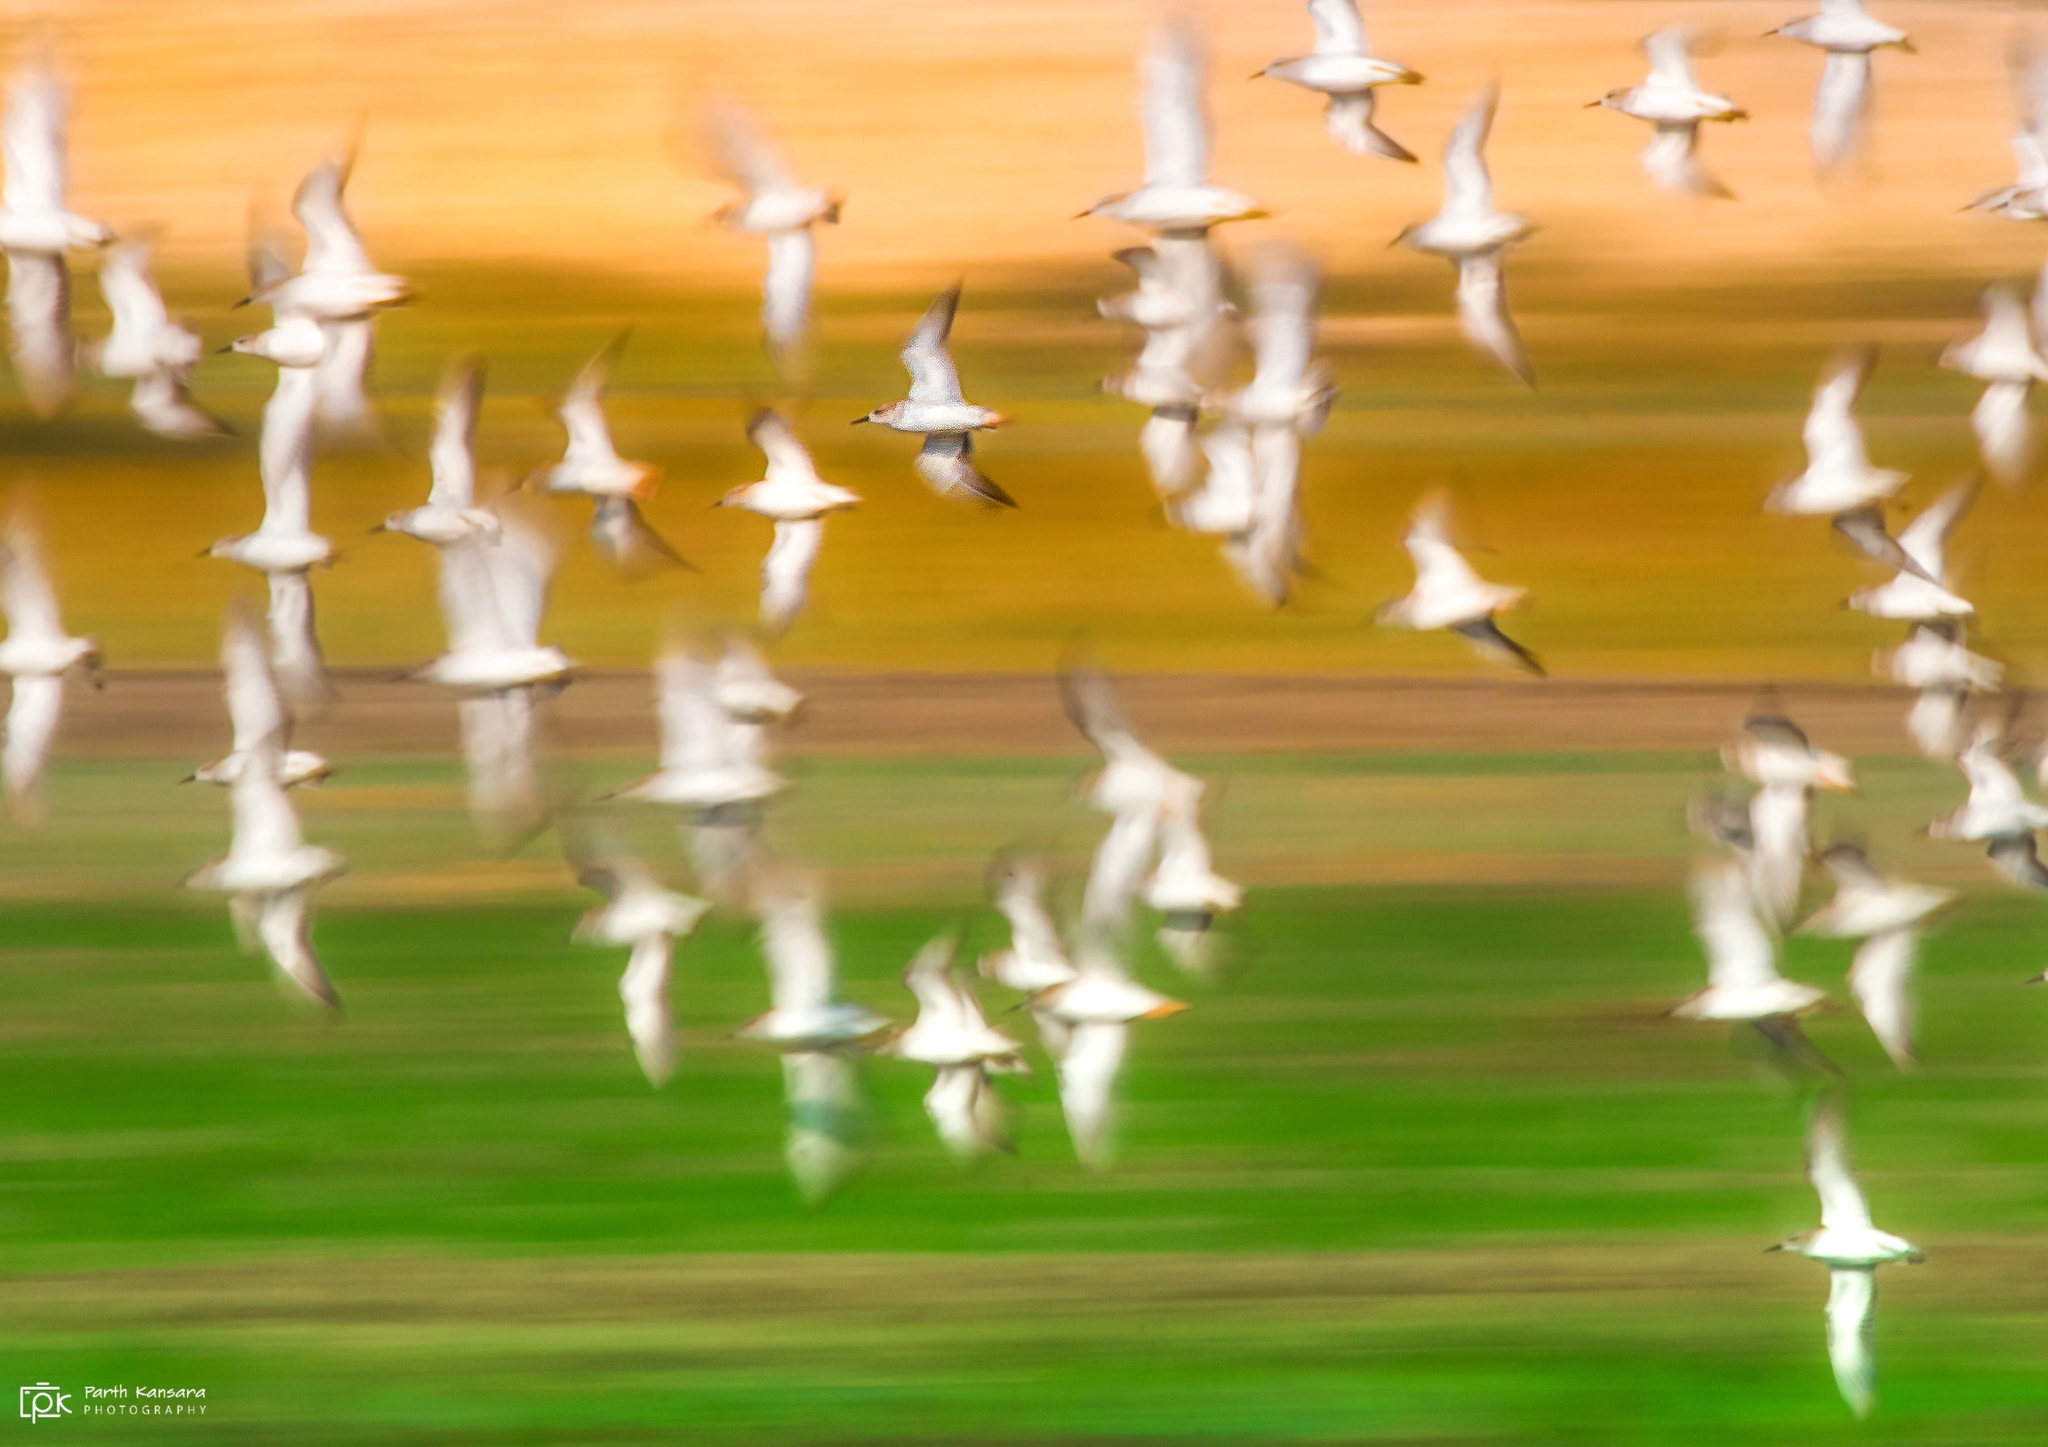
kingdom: Animalia
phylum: Chordata
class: Aves
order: Charadriiformes
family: Scolopacidae
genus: Calidris
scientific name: Calidris pugnax
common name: Ruff
